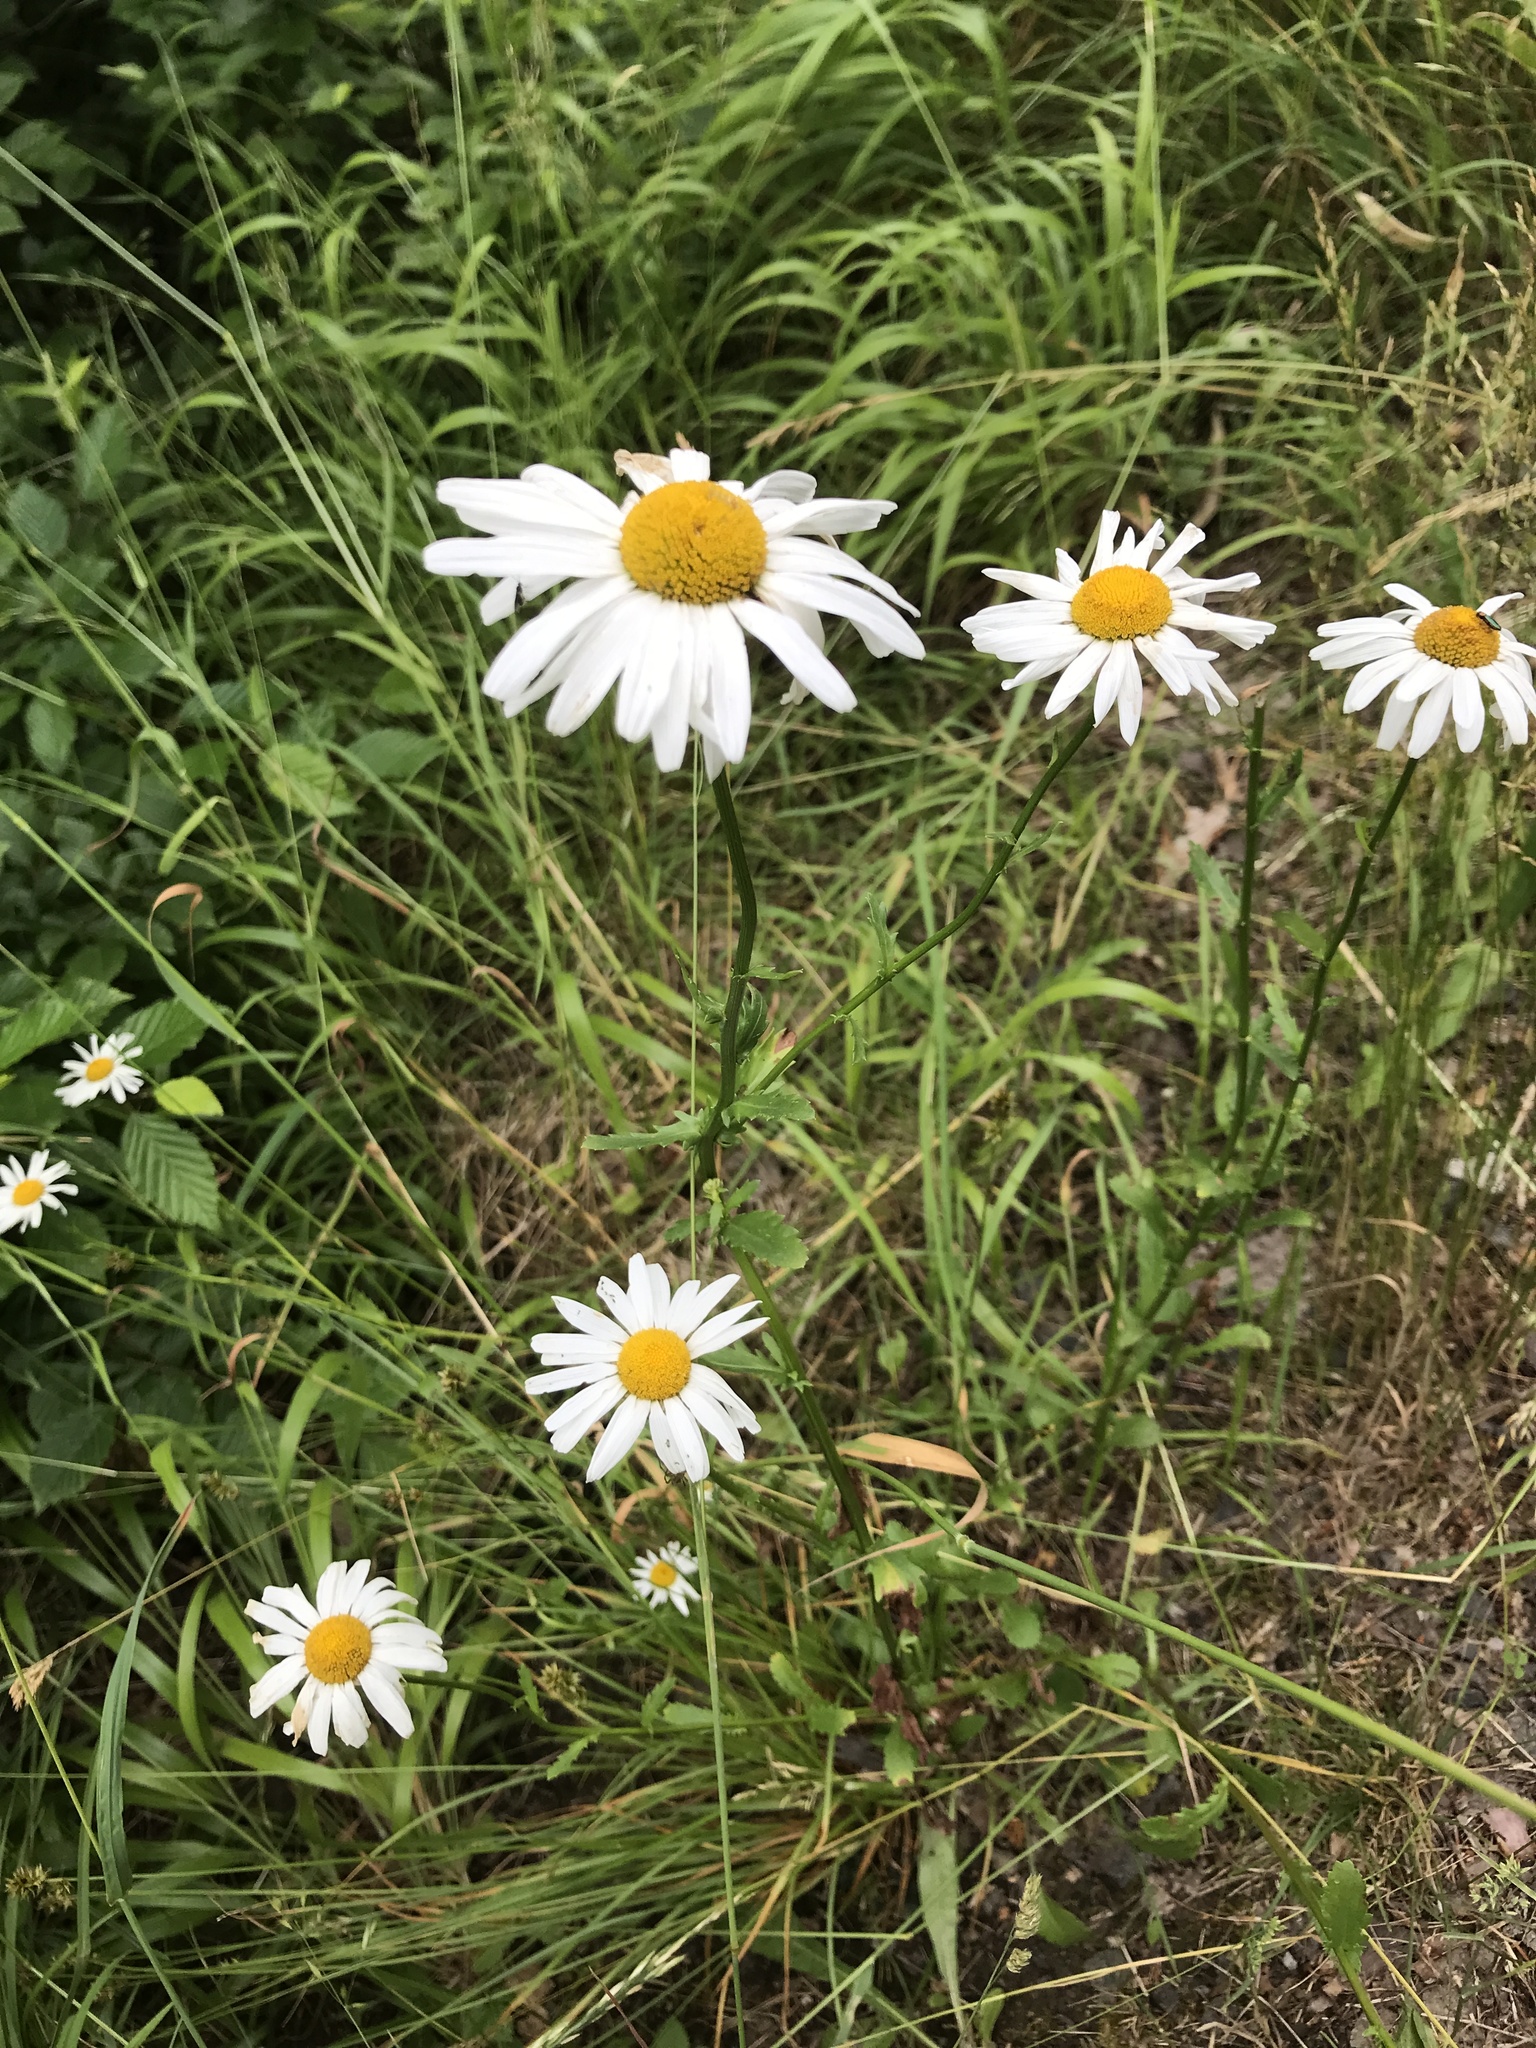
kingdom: Plantae
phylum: Tracheophyta
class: Magnoliopsida
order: Asterales
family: Asteraceae
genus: Leucanthemum
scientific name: Leucanthemum vulgare
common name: Oxeye daisy
